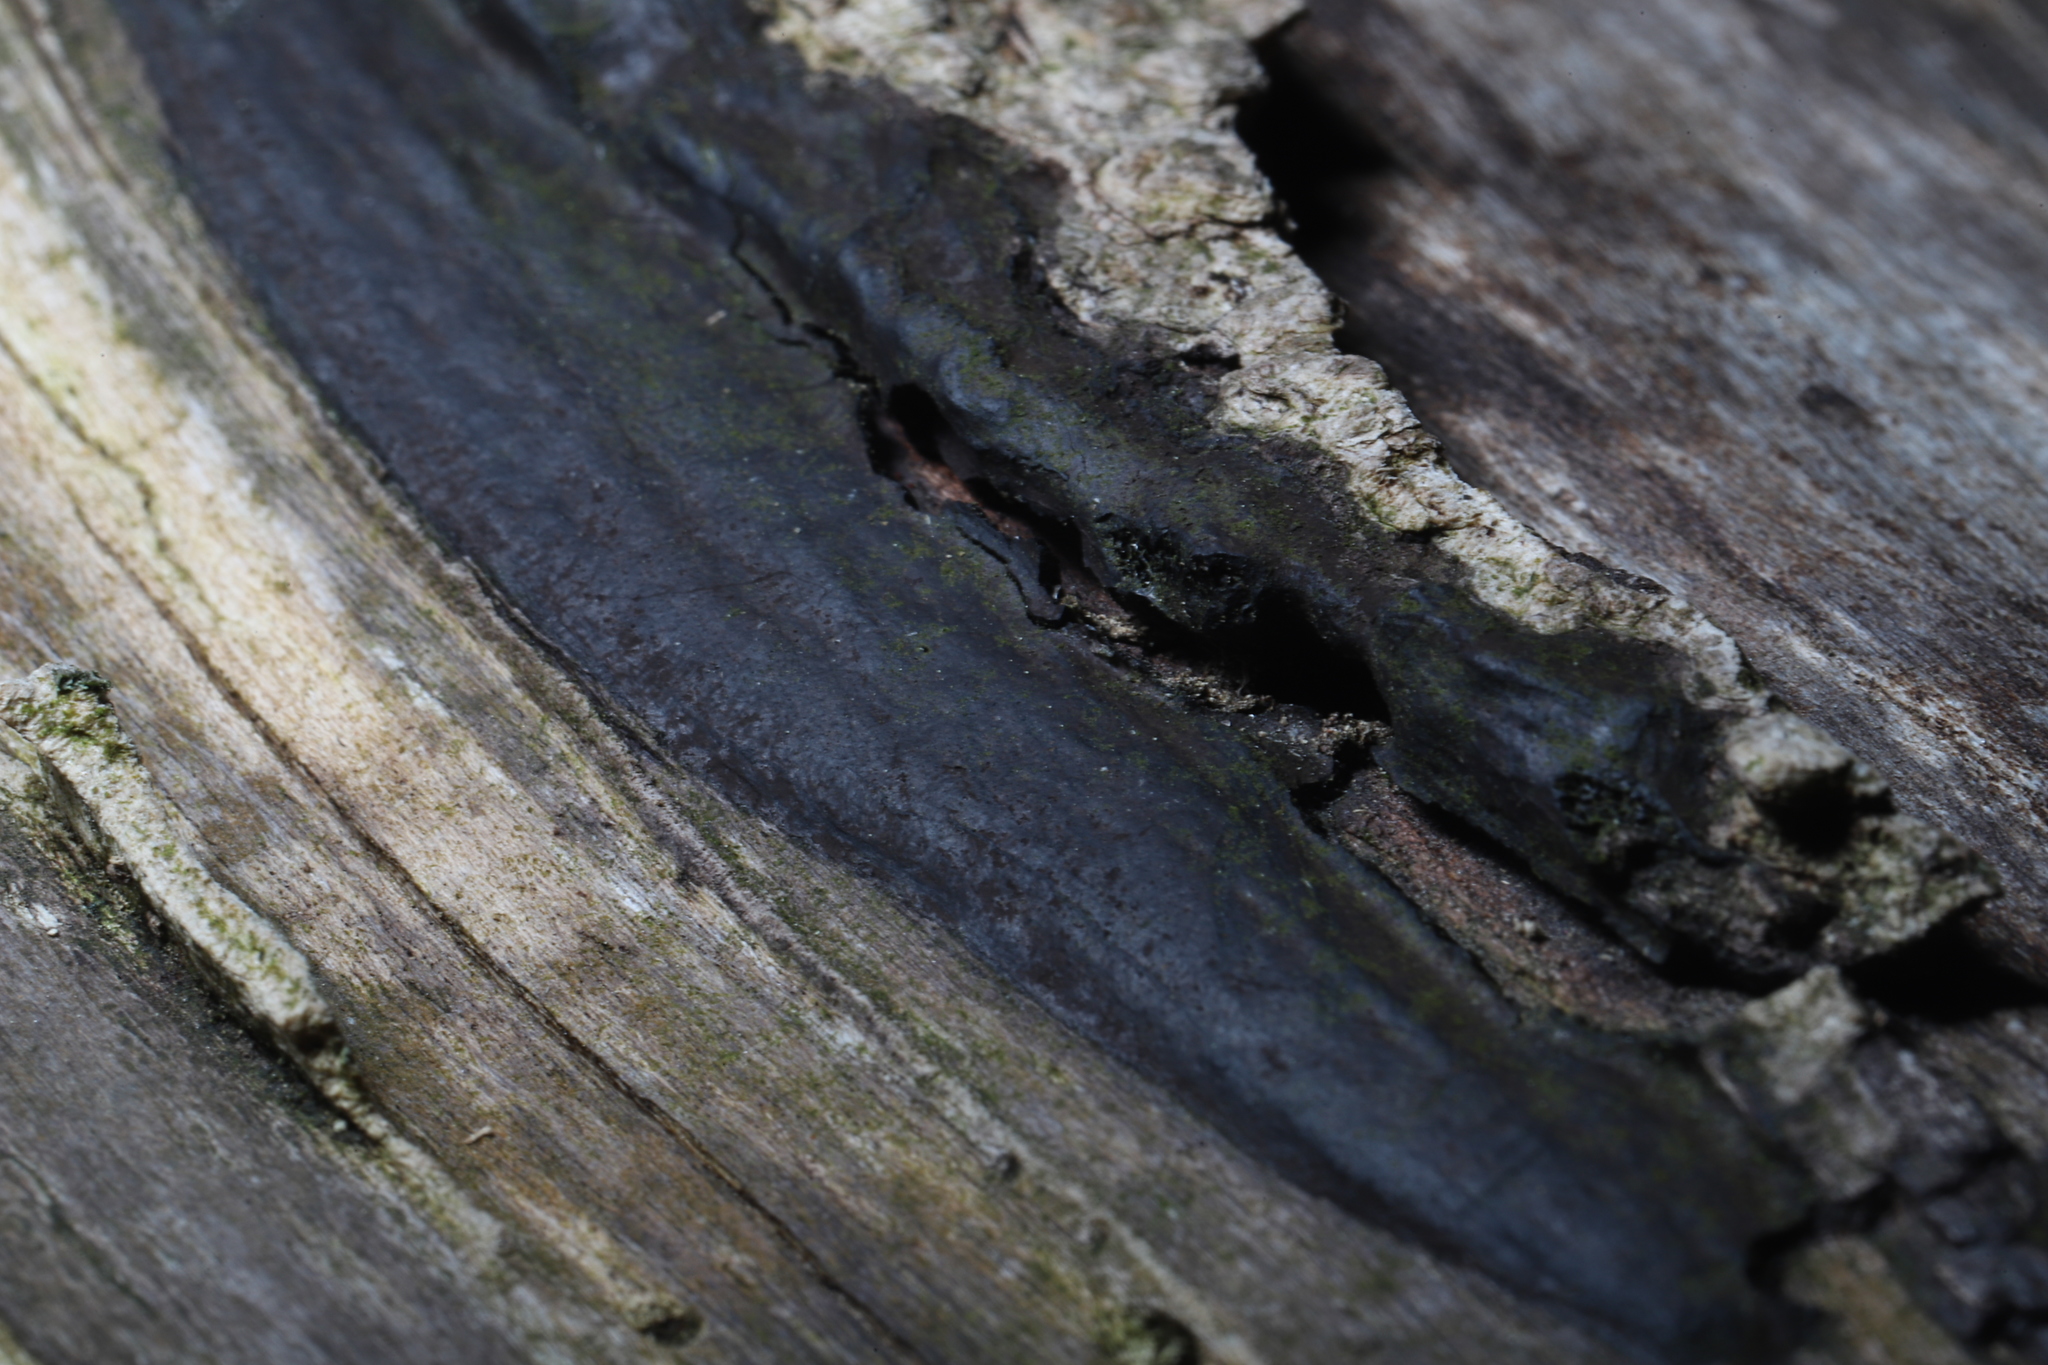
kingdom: Fungi
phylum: Ascomycota
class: Sordariomycetes
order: Xylariales
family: Graphostromataceae
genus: Camillea
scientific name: Camillea tinctor
